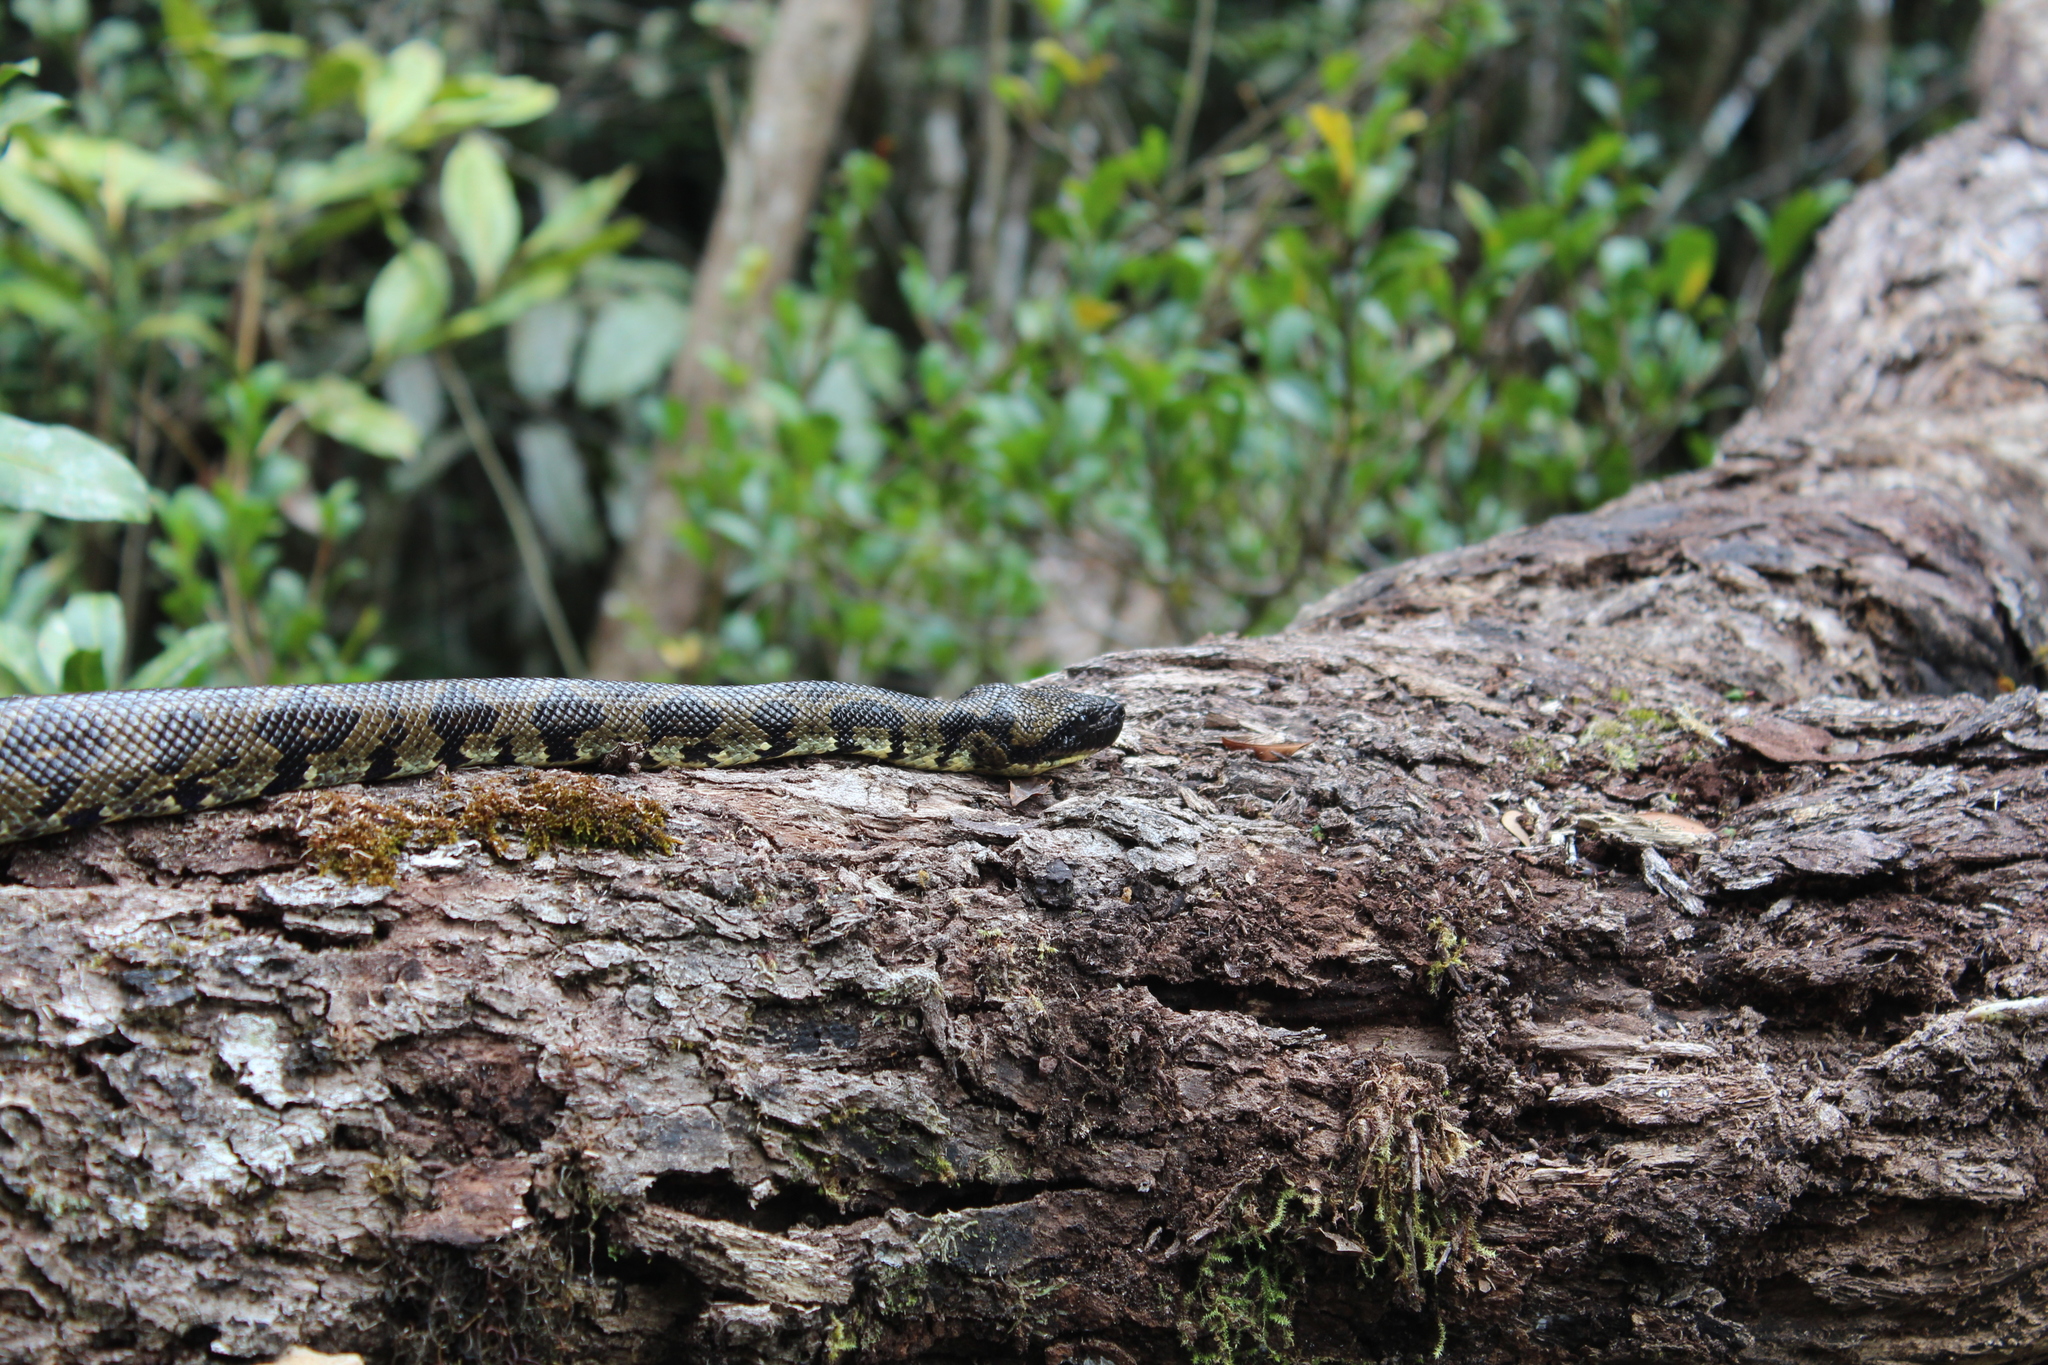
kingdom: Animalia
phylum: Chordata
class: Squamata
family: Boidae
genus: Sanzinia
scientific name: Sanzinia madagascariensis
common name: Madagascar tree boa
